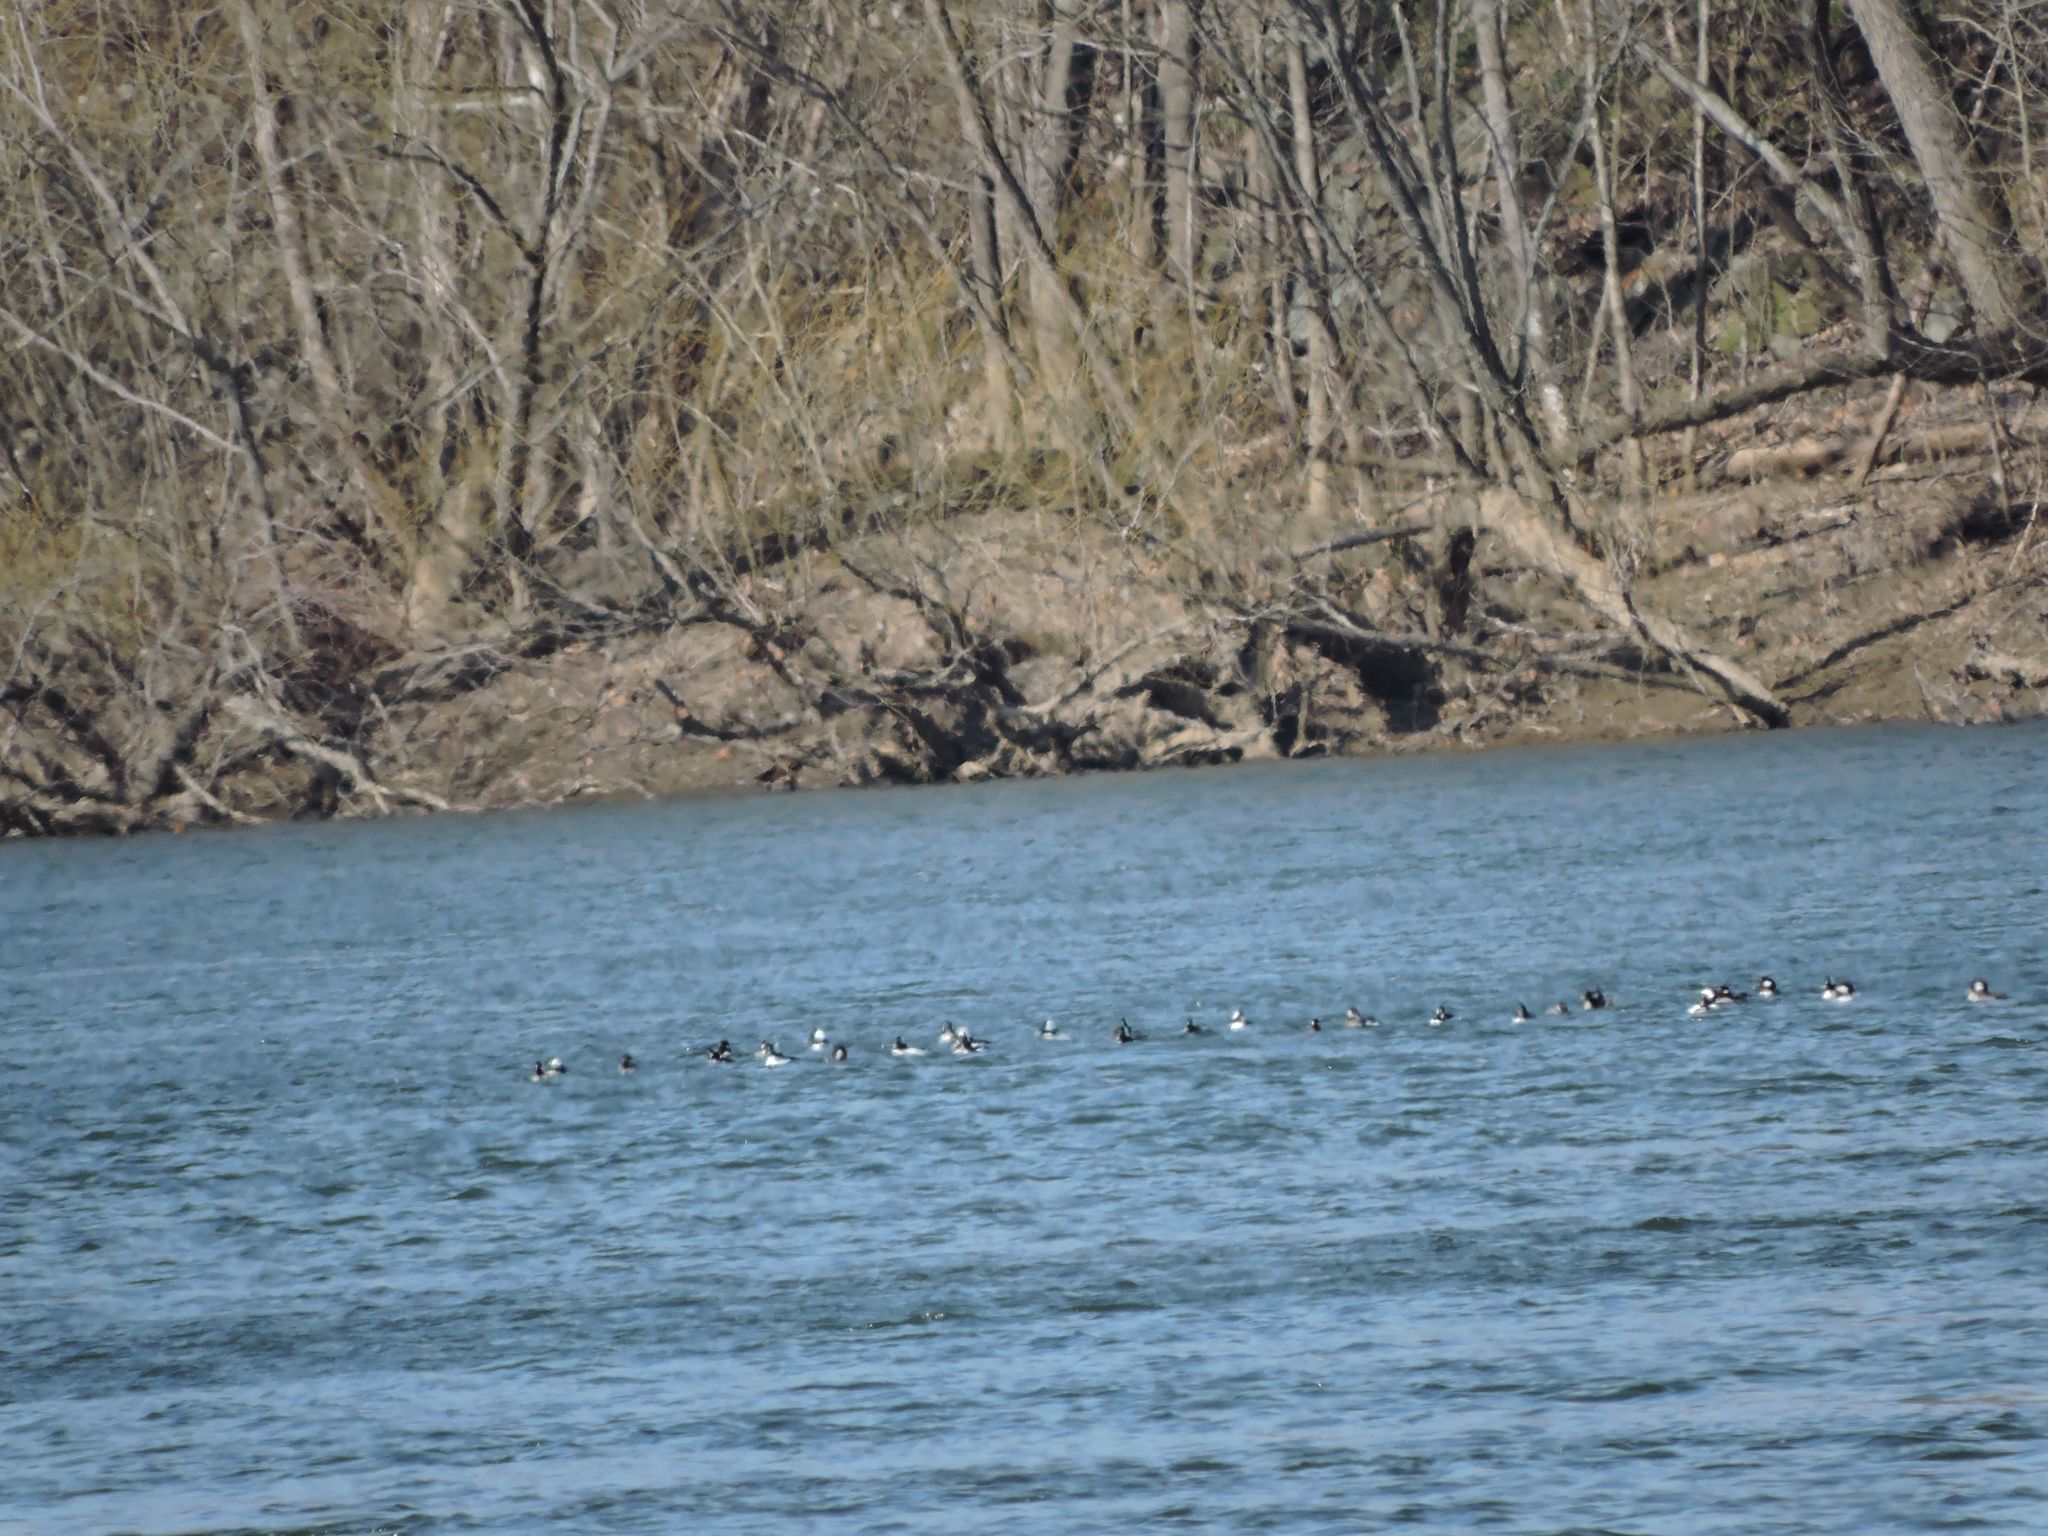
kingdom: Animalia
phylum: Chordata
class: Aves
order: Anseriformes
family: Anatidae
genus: Bucephala
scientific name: Bucephala albeola
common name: Bufflehead
